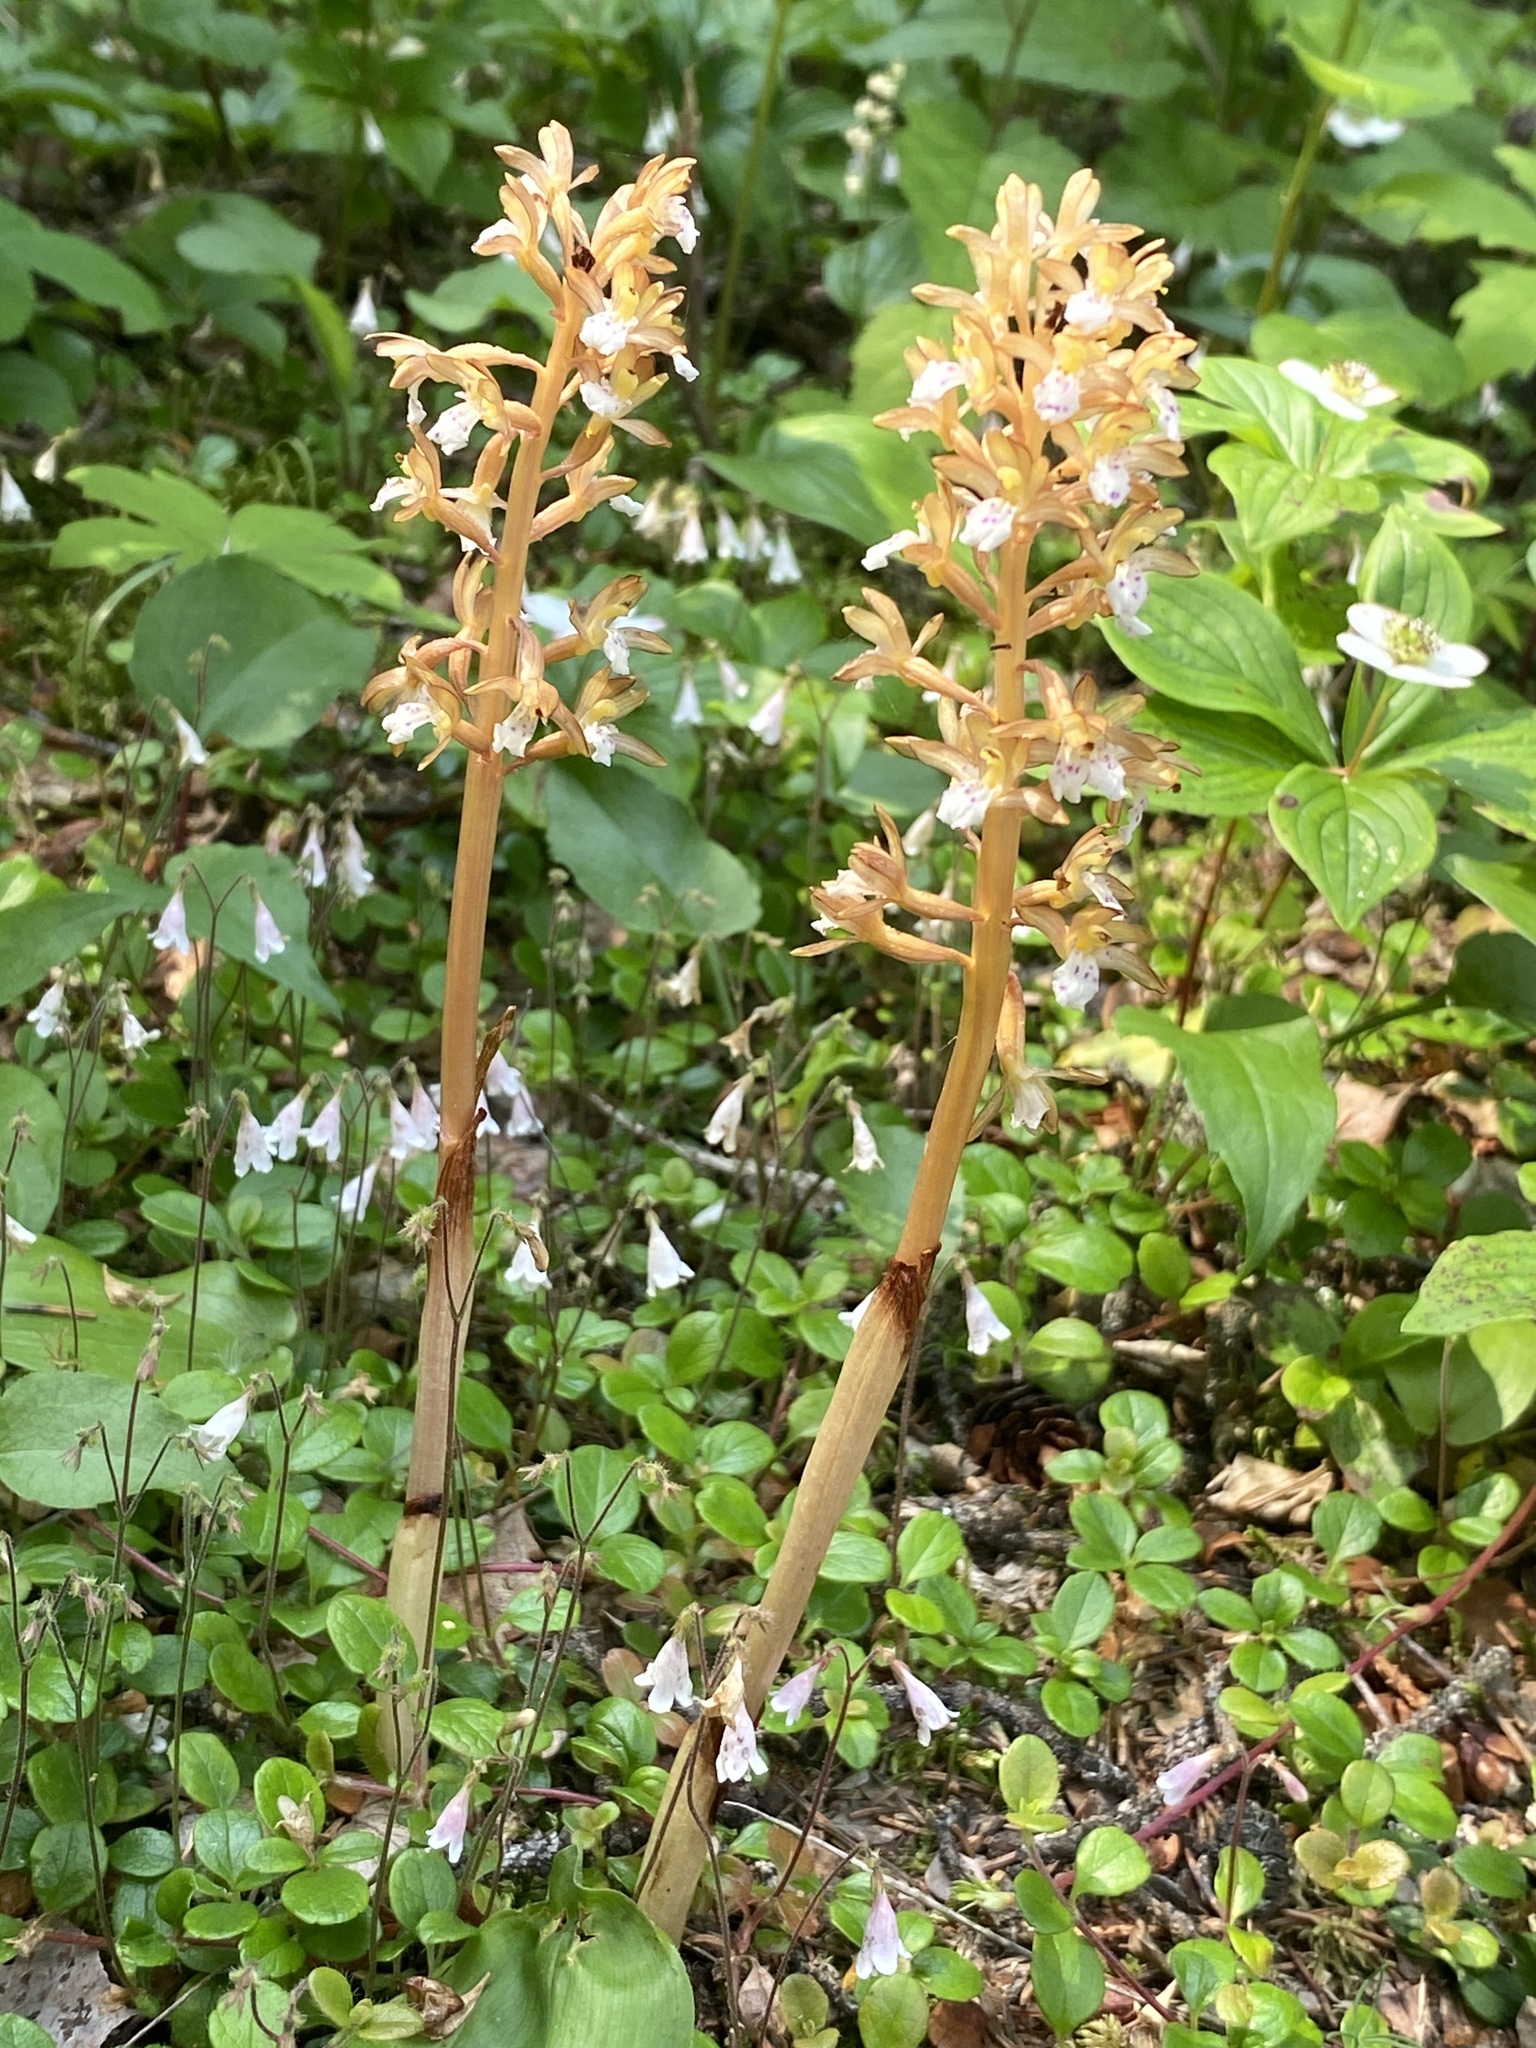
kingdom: Plantae
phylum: Tracheophyta
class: Liliopsida
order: Asparagales
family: Orchidaceae
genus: Corallorhiza
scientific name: Corallorhiza maculata
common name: Spotted coralroot
